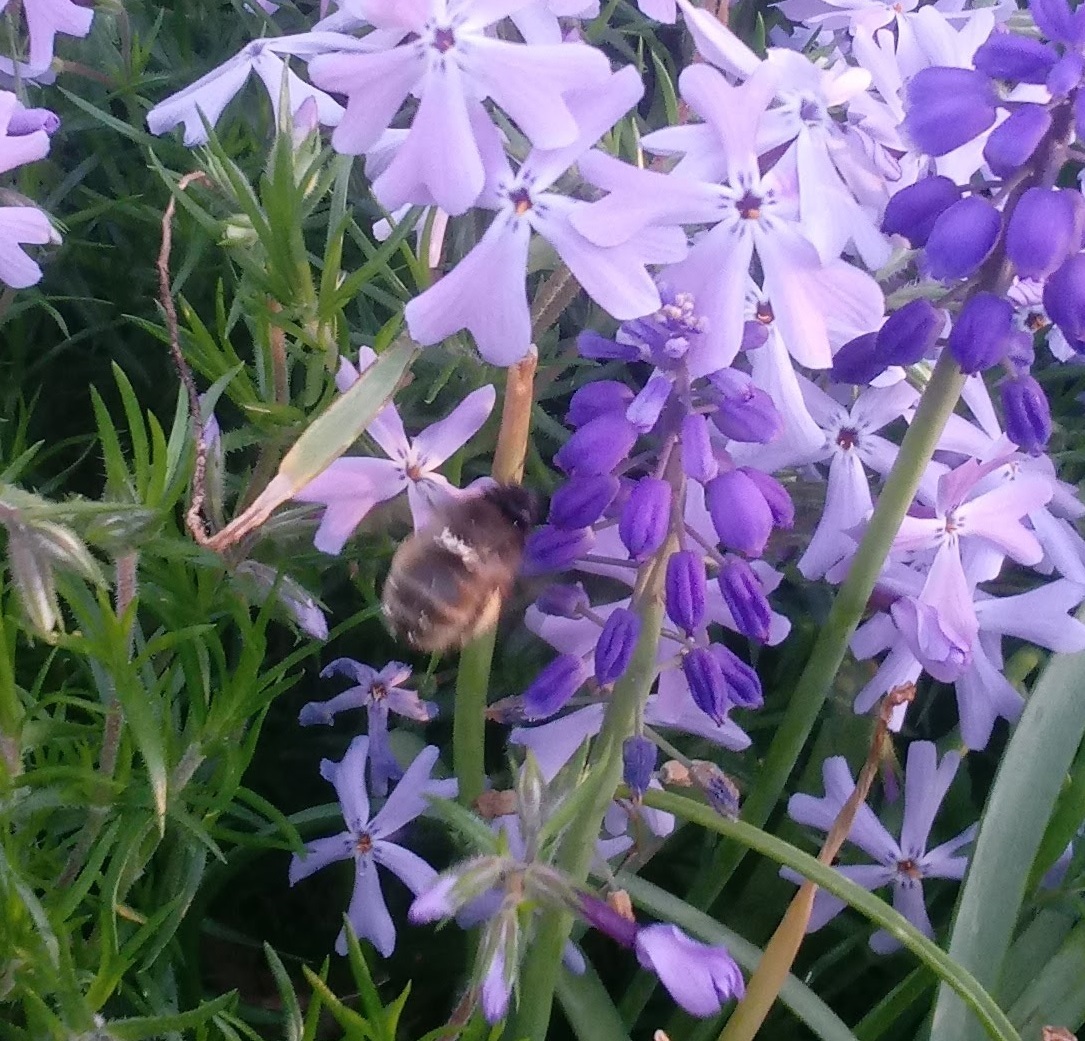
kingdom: Animalia
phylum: Arthropoda
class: Insecta
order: Hymenoptera
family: Apidae
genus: Anthophora
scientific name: Anthophora villosula
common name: Asian shaggy digger
